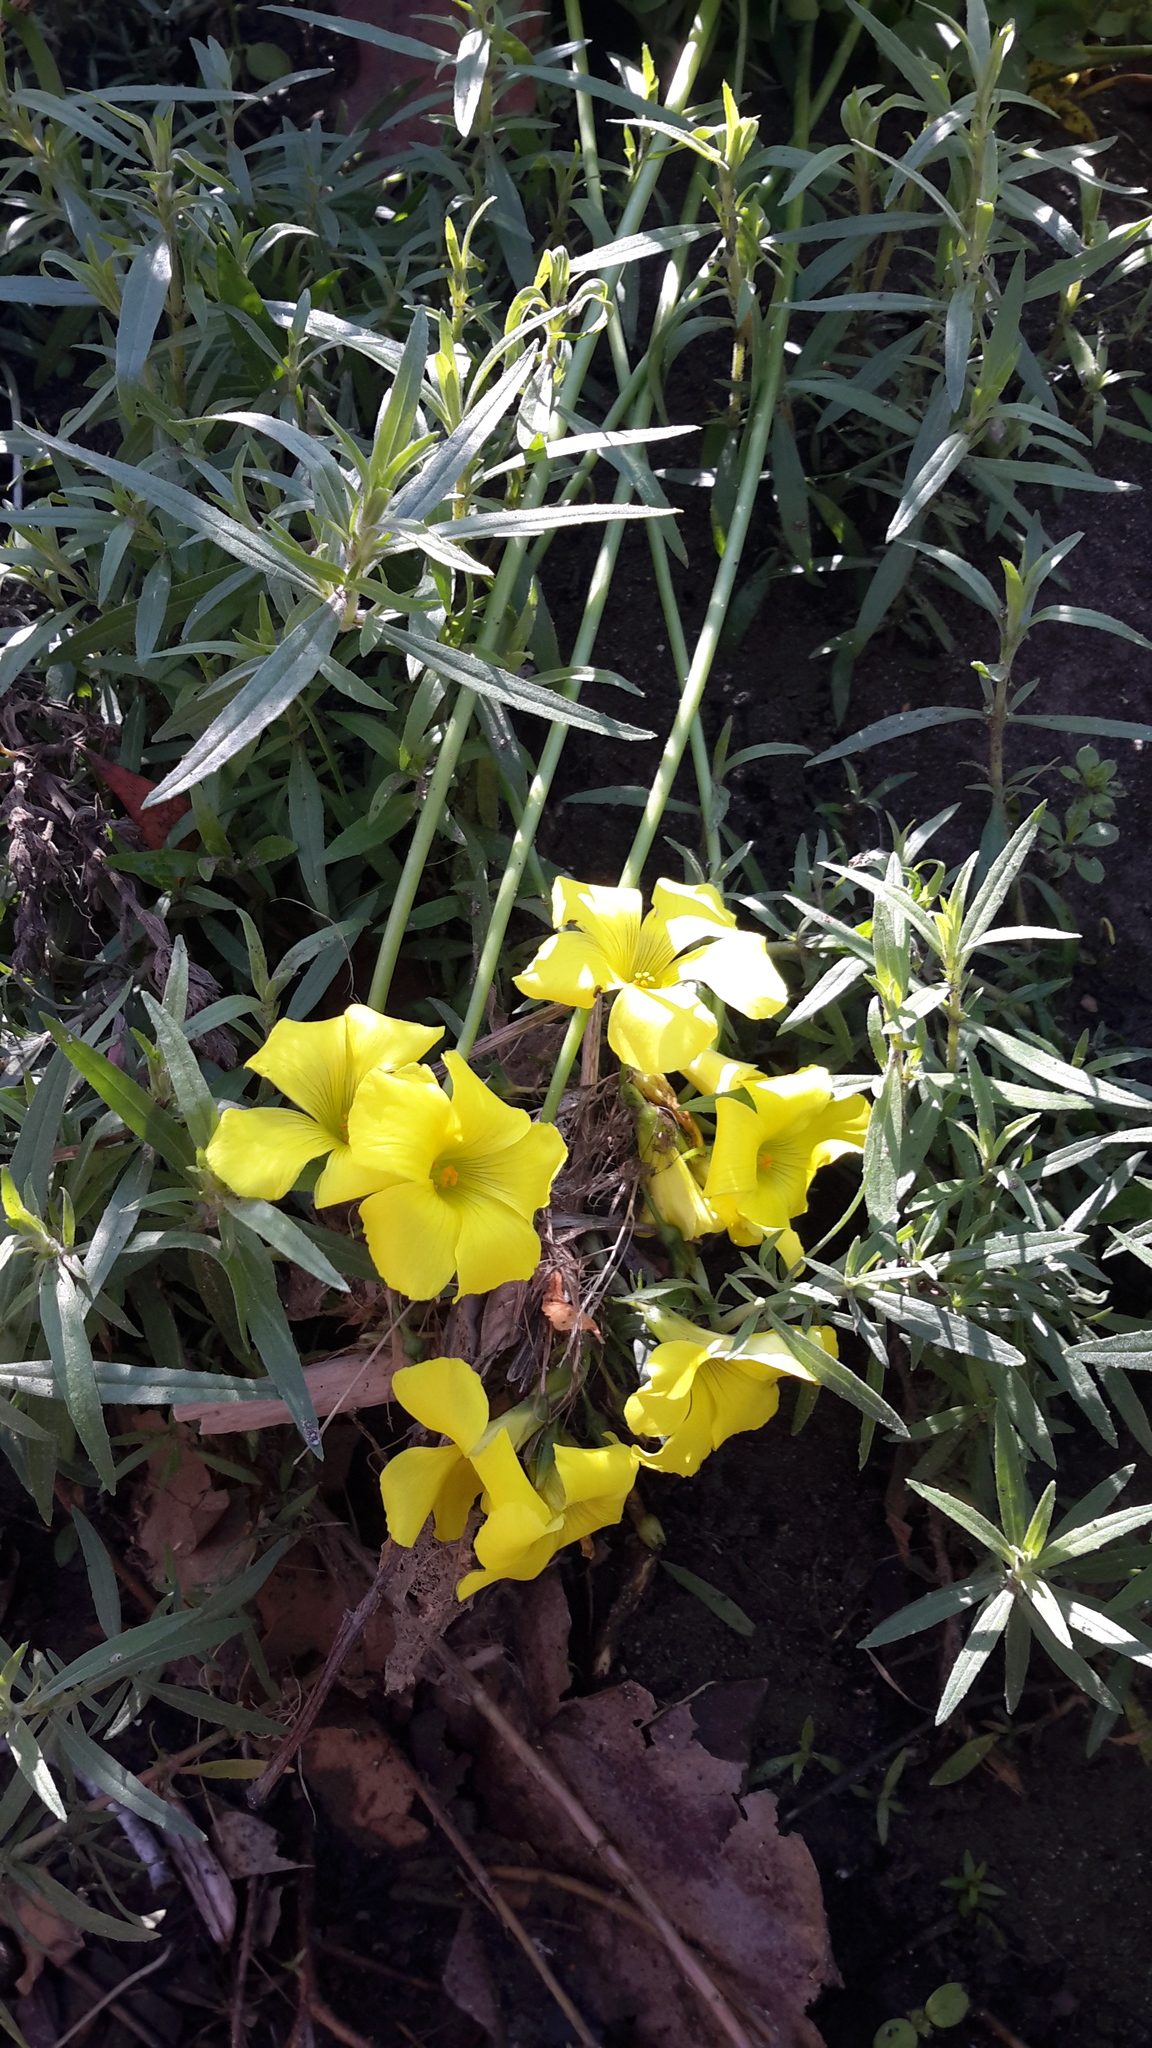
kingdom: Plantae
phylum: Tracheophyta
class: Magnoliopsida
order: Oxalidales
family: Oxalidaceae
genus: Oxalis
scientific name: Oxalis pes-caprae
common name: Bermuda-buttercup
